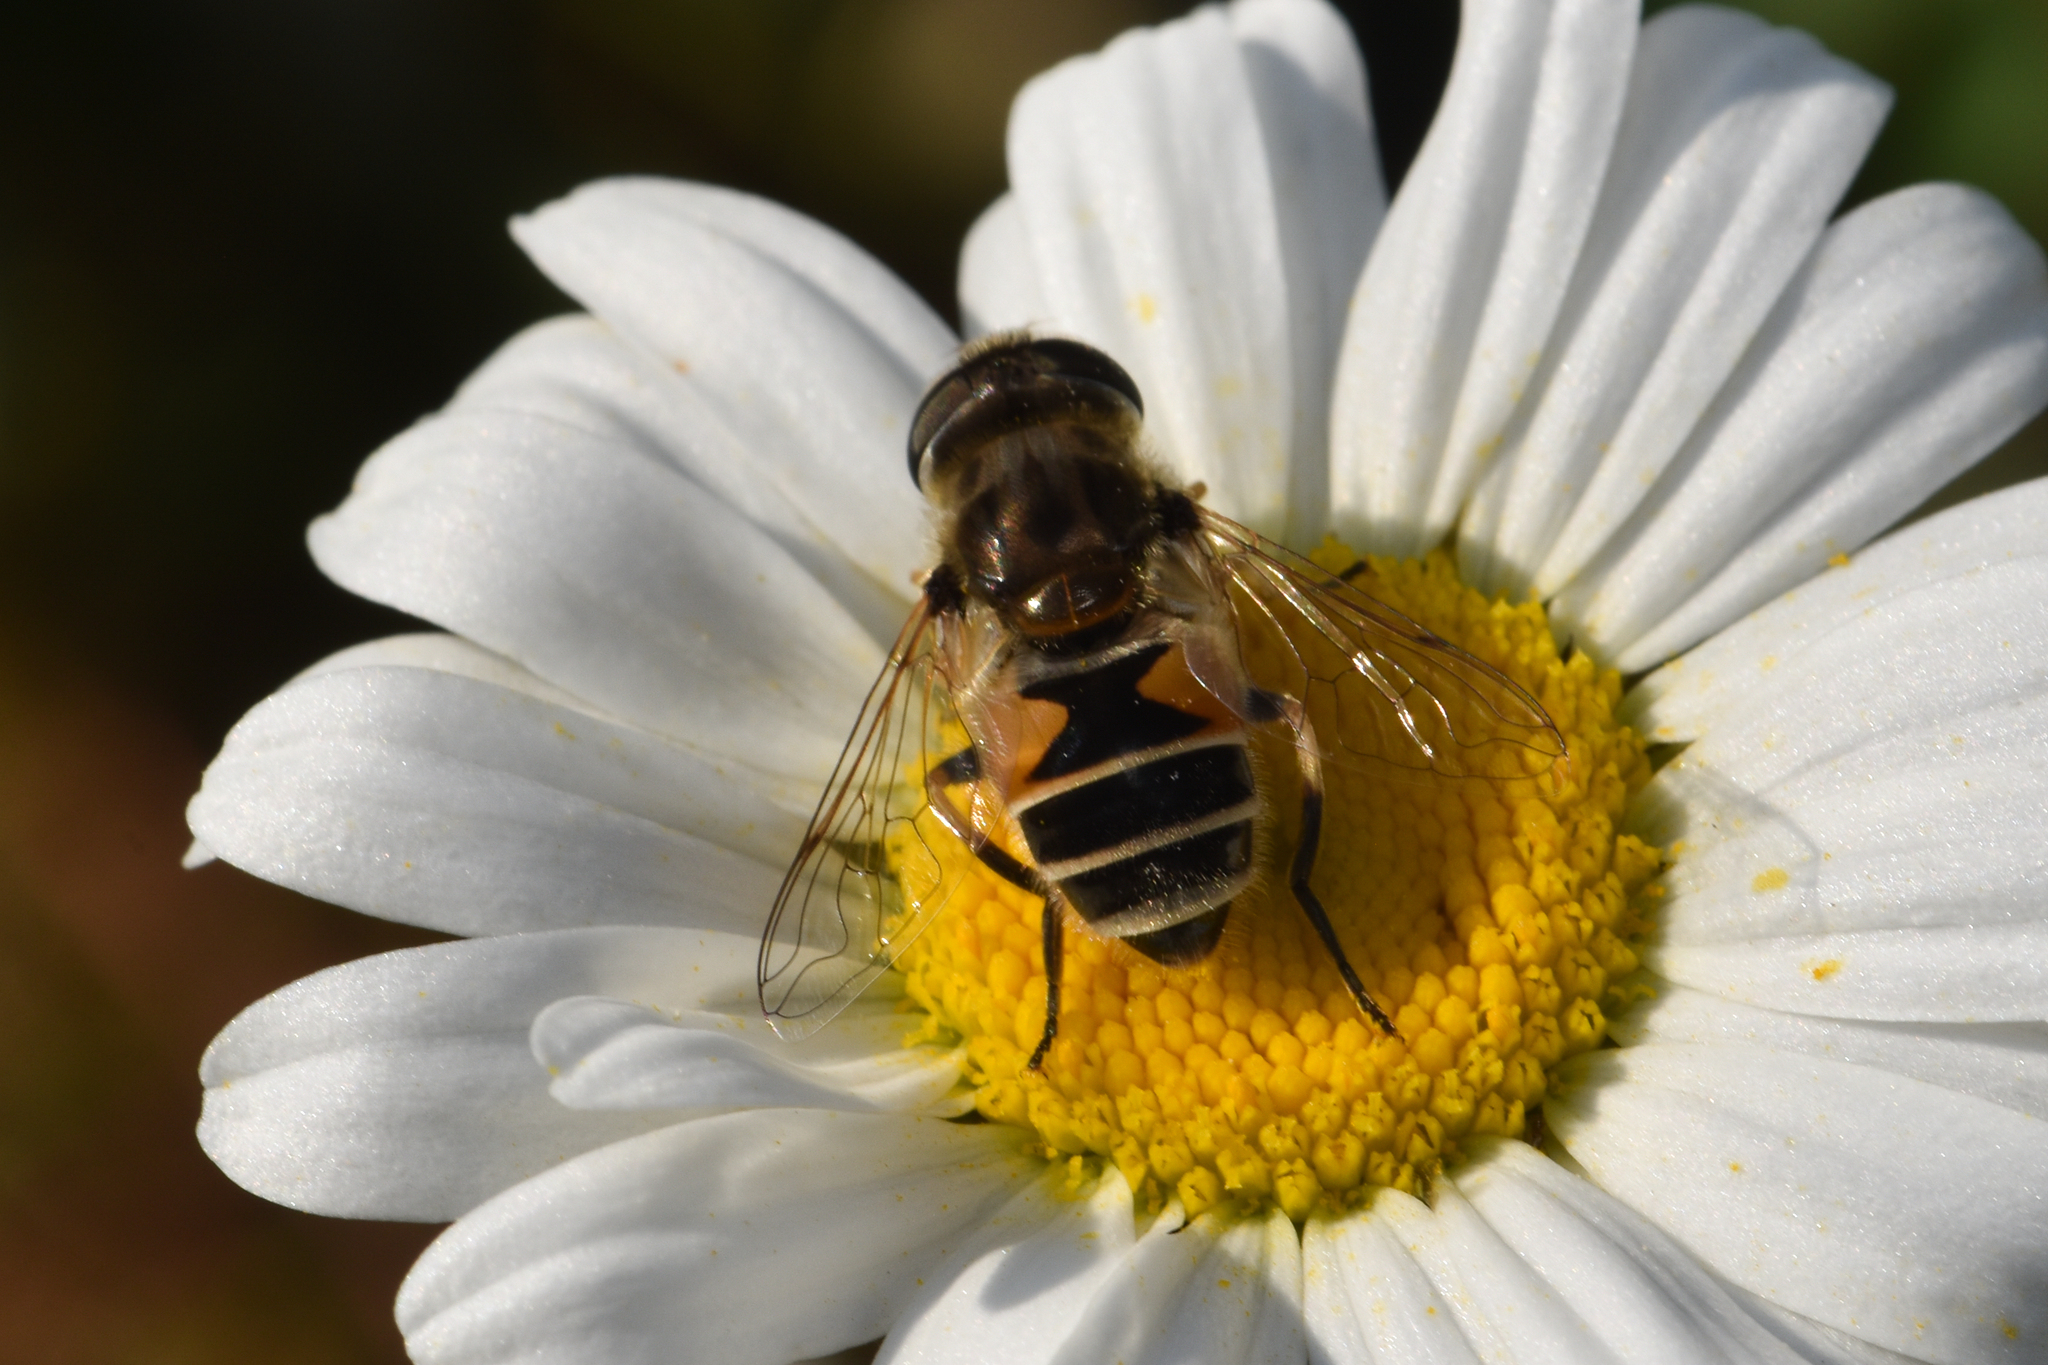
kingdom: Animalia
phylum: Arthropoda
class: Insecta
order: Diptera
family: Syrphidae
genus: Eristalis
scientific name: Eristalis arbustorum
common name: Hover fly
